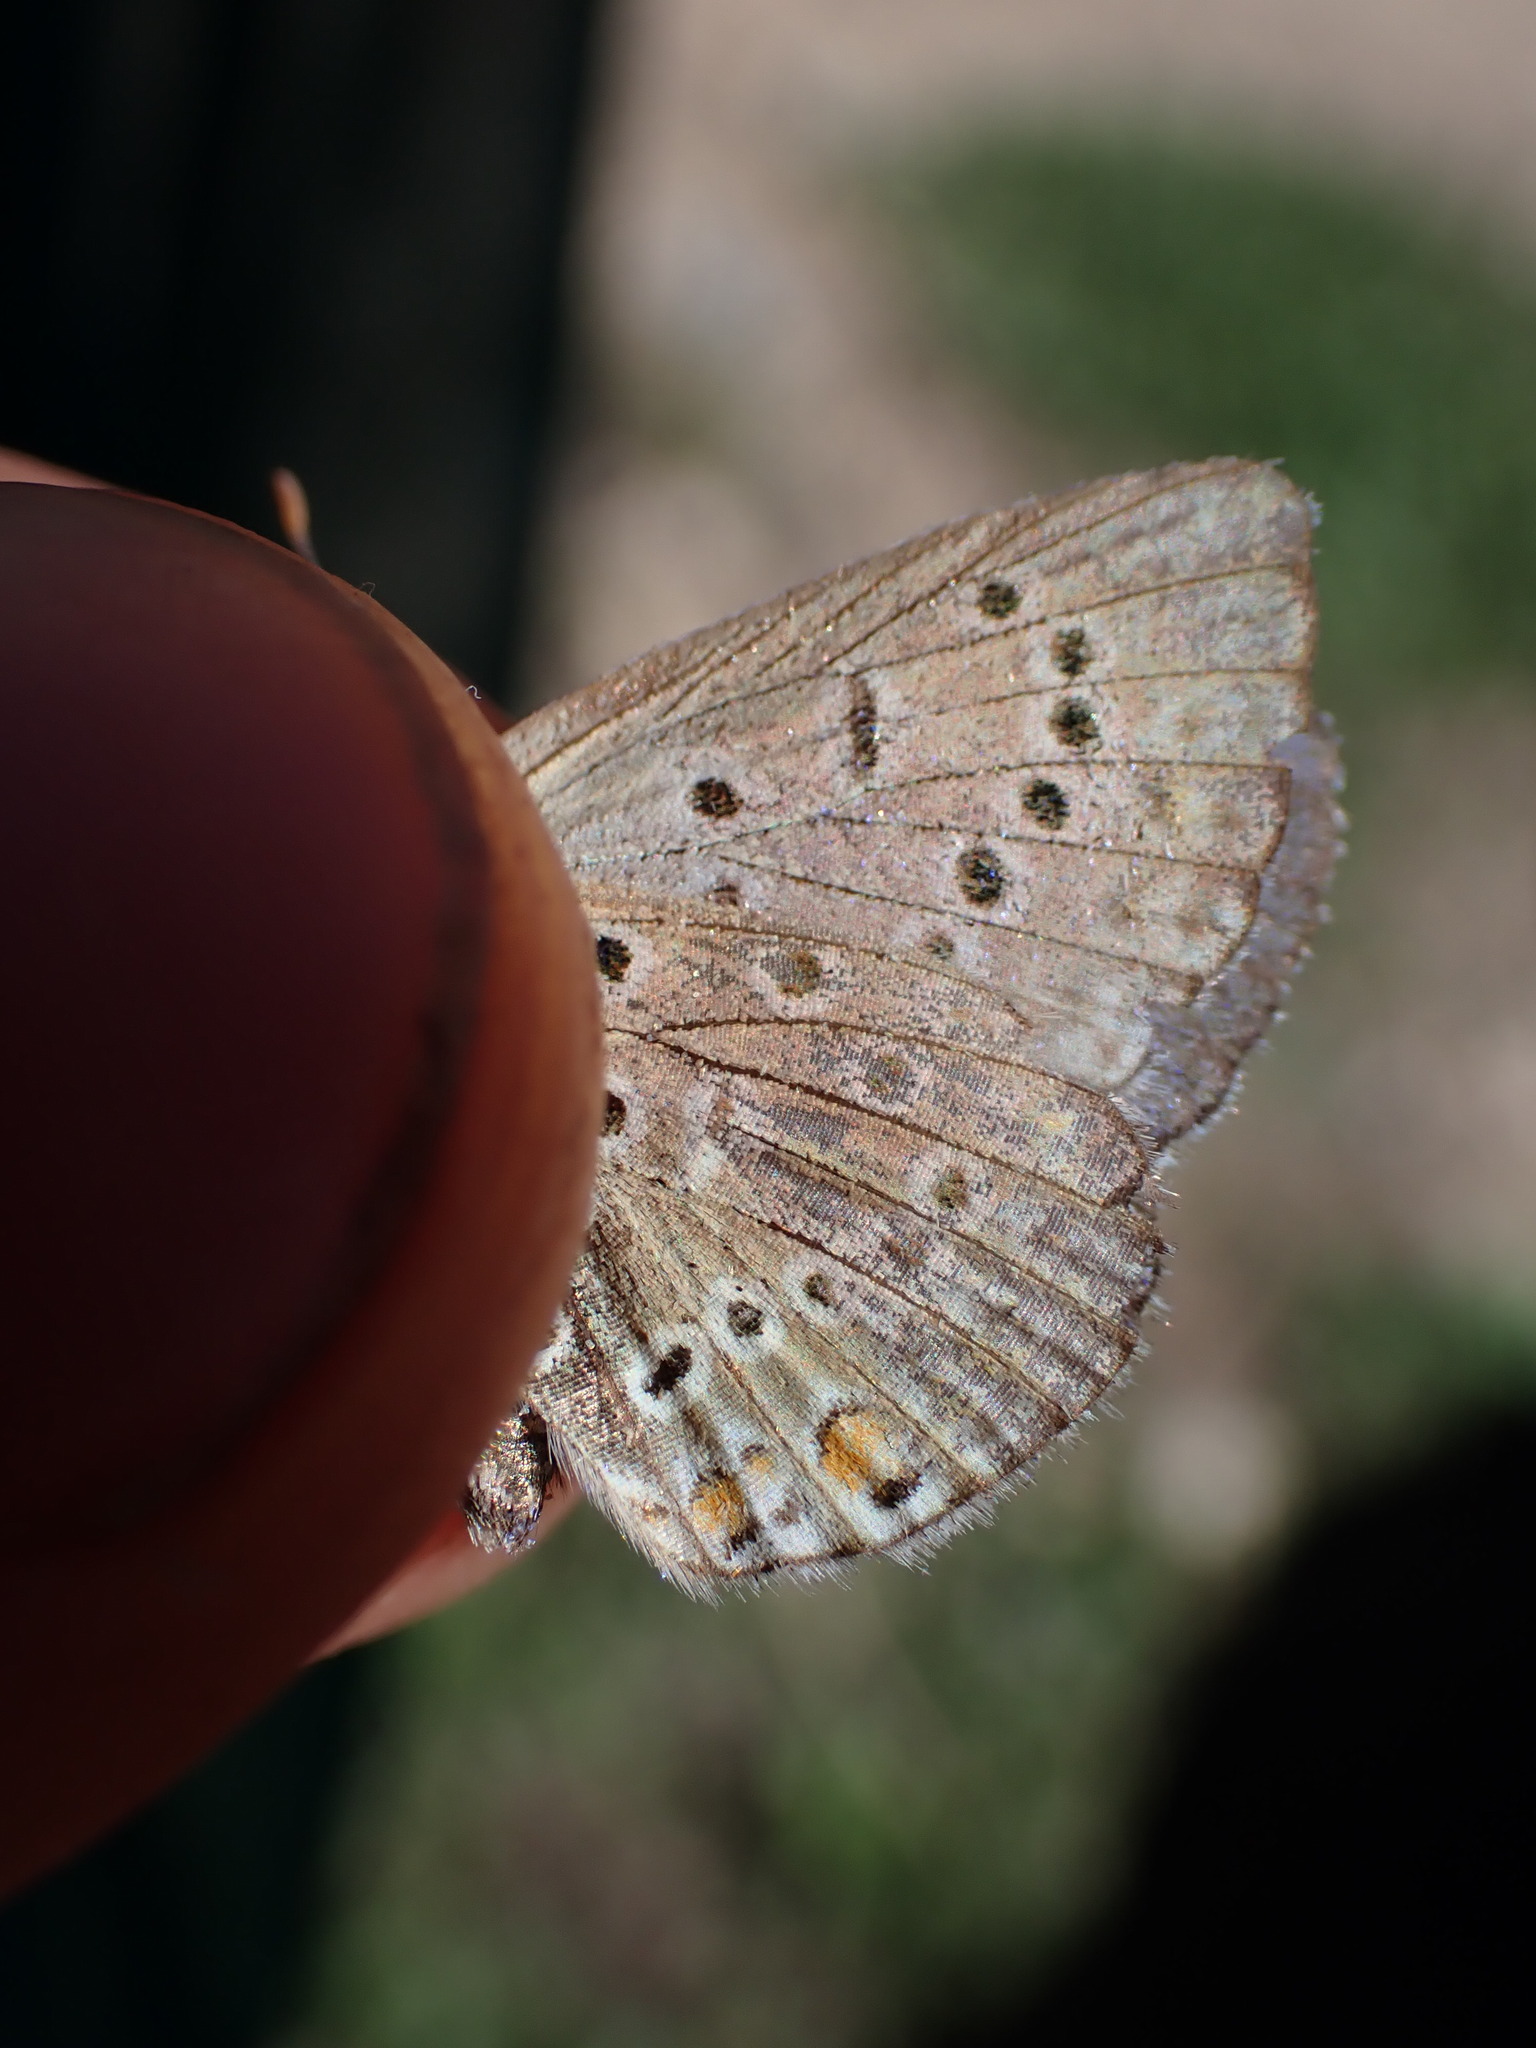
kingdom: Animalia
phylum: Arthropoda
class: Insecta
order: Lepidoptera
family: Lycaenidae
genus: Polyommatus
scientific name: Polyommatus icarus
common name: Common blue
